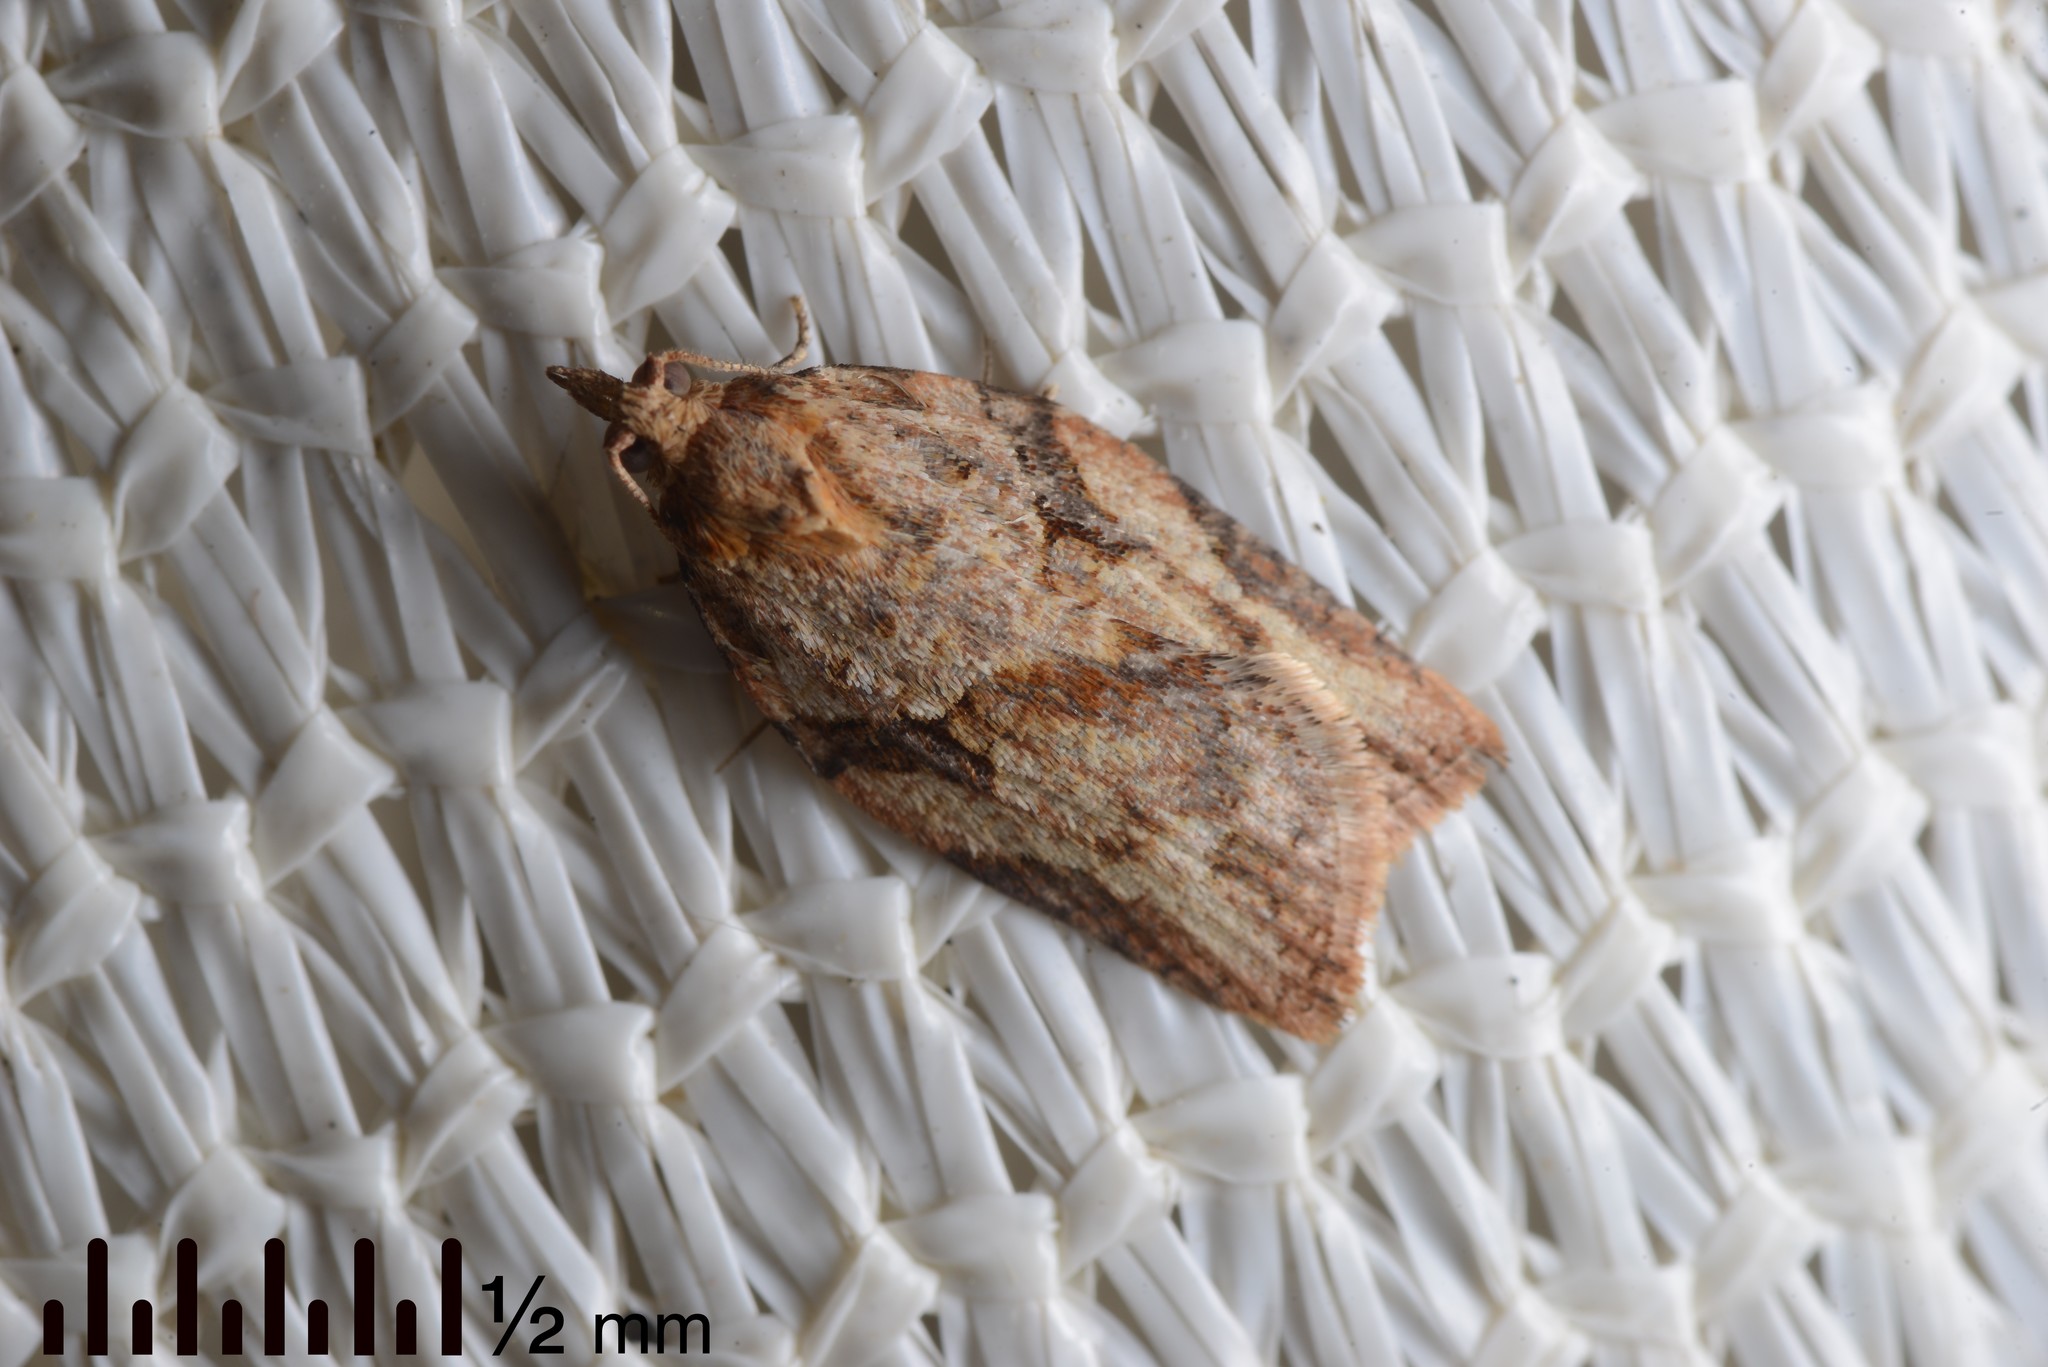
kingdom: Animalia
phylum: Arthropoda
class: Insecta
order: Lepidoptera
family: Tortricidae
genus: Epiphyas
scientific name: Epiphyas postvittana
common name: Light brown apple moth
